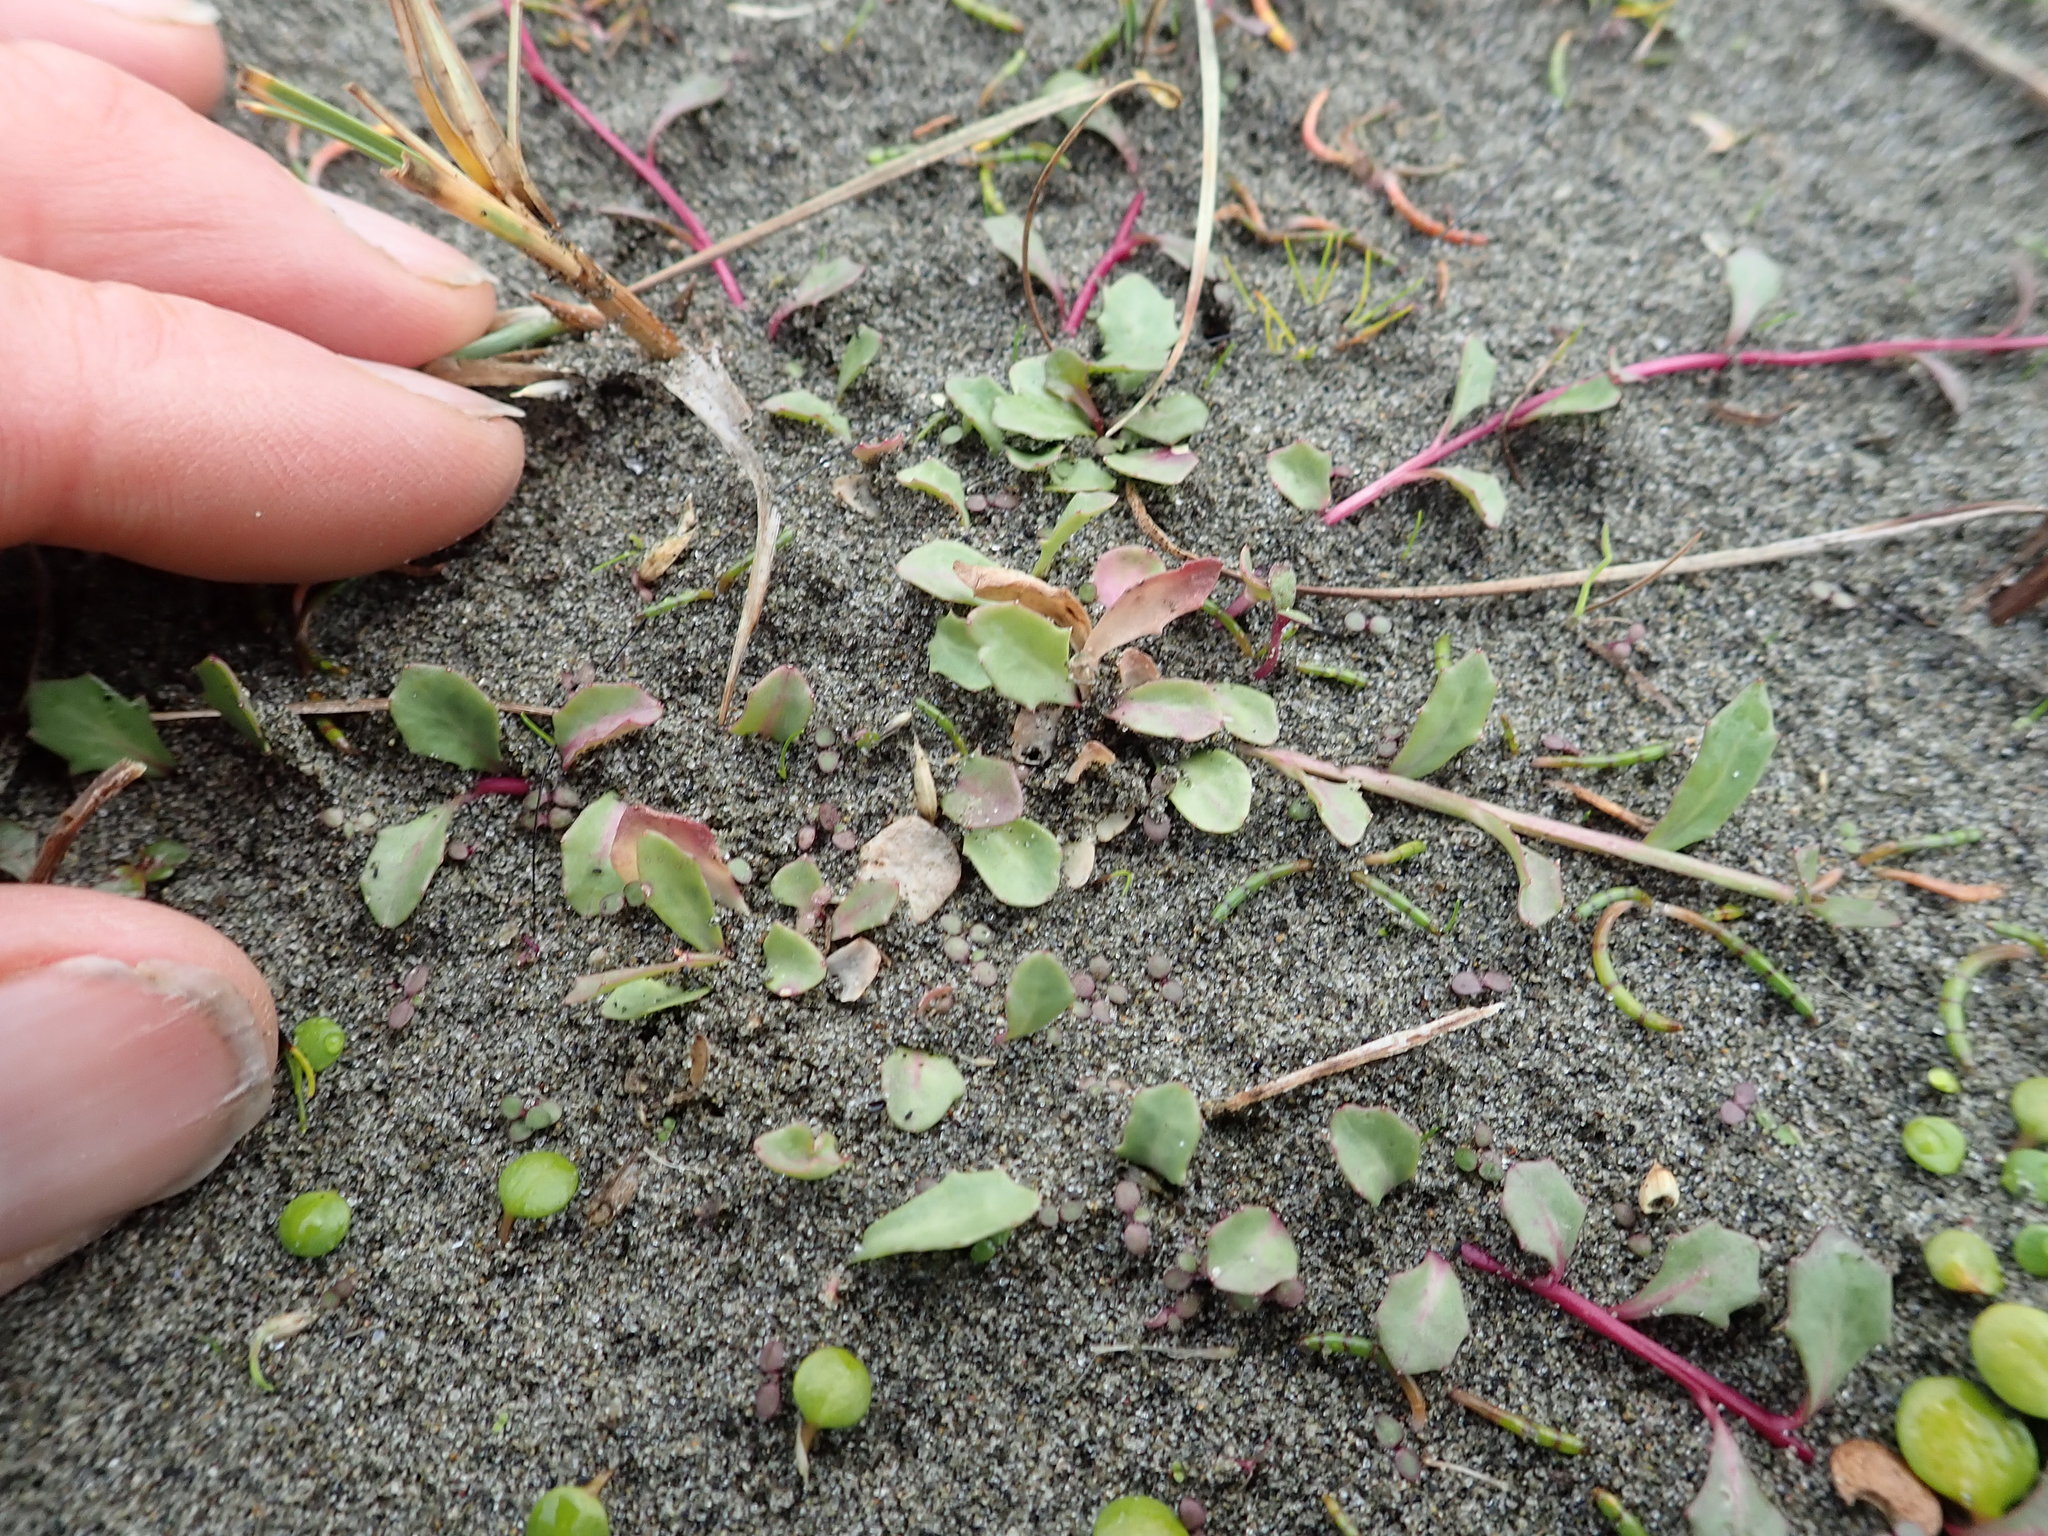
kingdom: Plantae
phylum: Tracheophyta
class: Magnoliopsida
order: Asterales
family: Campanulaceae
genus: Lobelia
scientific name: Lobelia anceps
